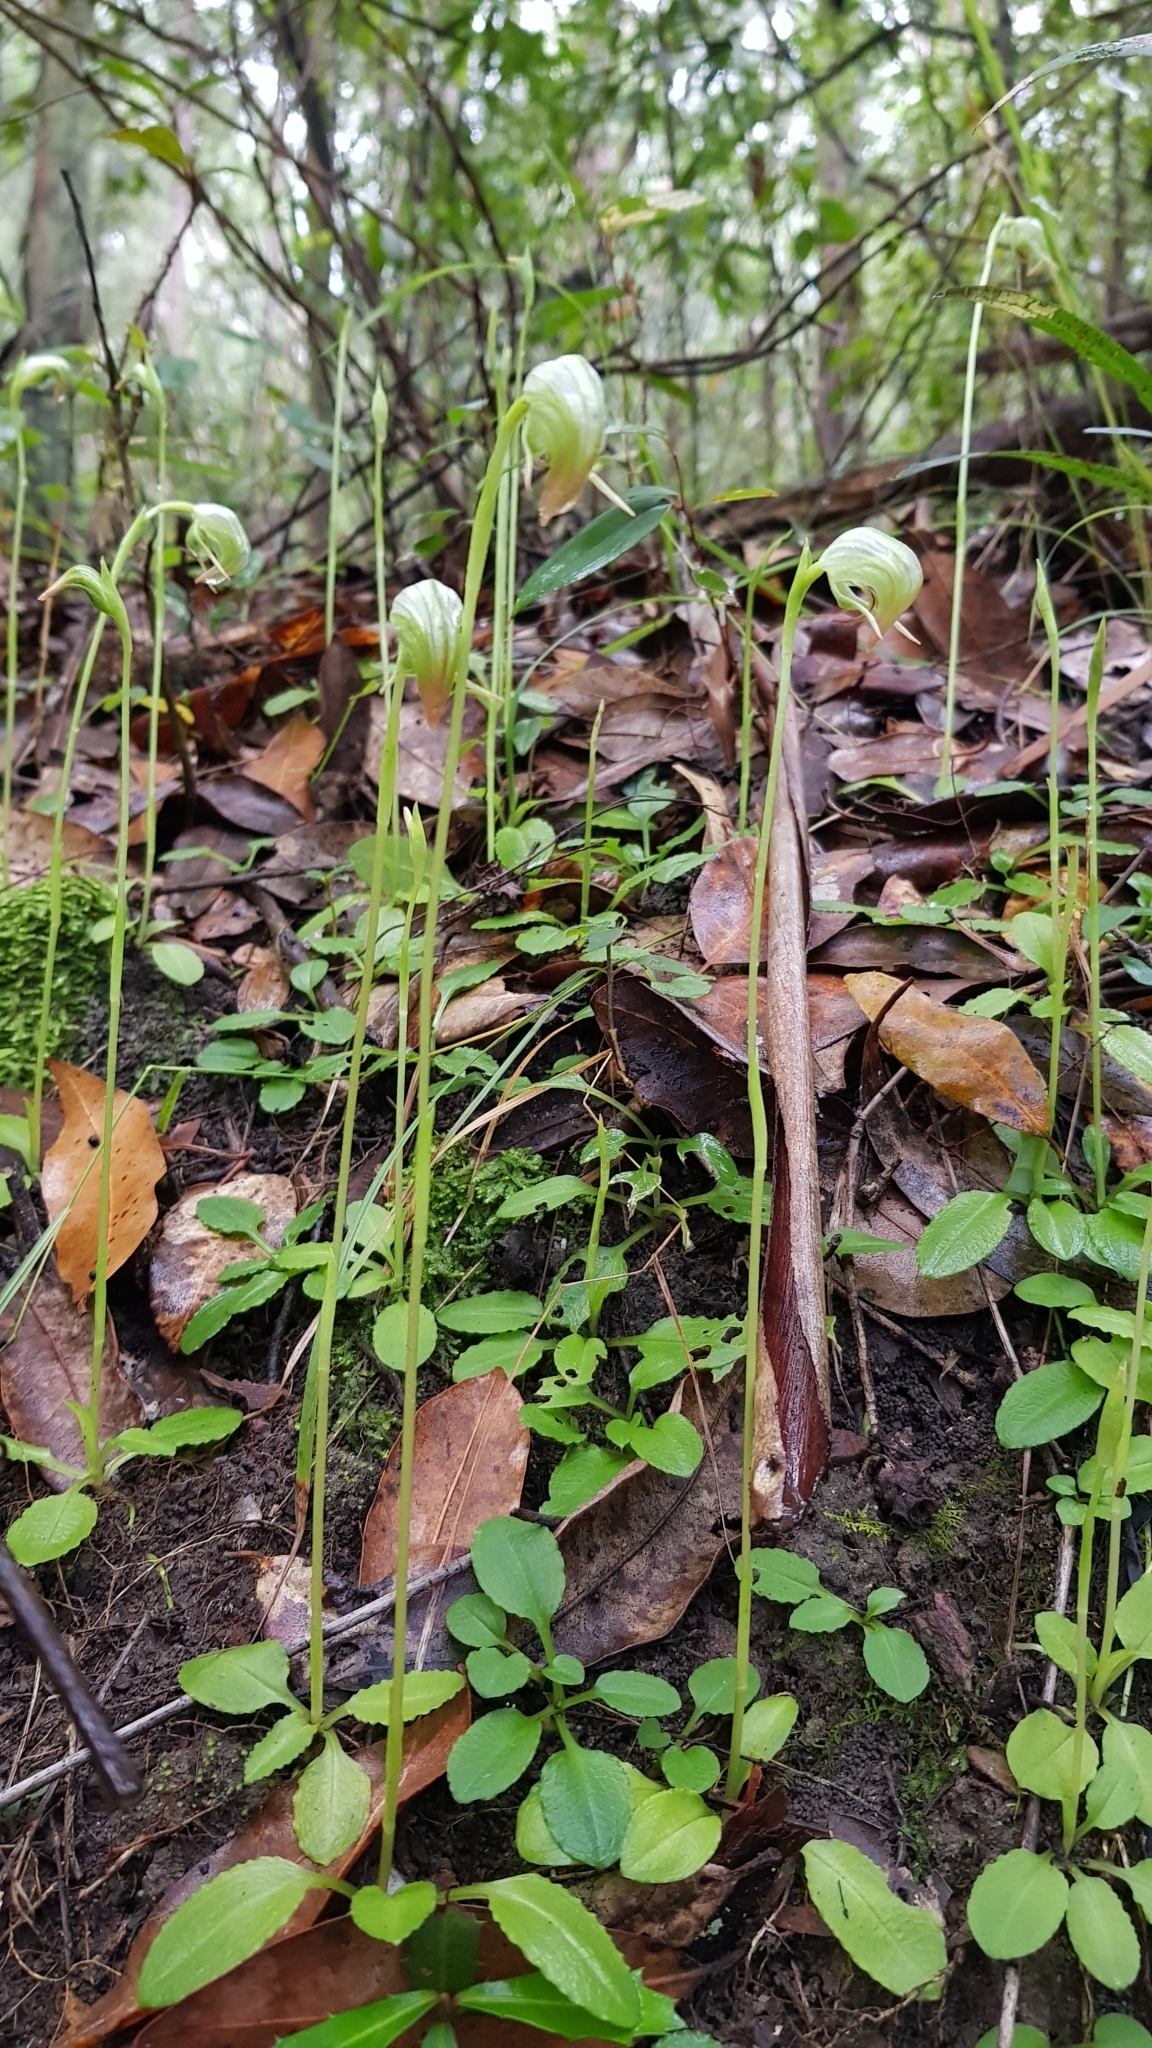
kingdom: Plantae
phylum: Tracheophyta
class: Liliopsida
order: Asparagales
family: Orchidaceae
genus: Pterostylis
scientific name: Pterostylis nutans
